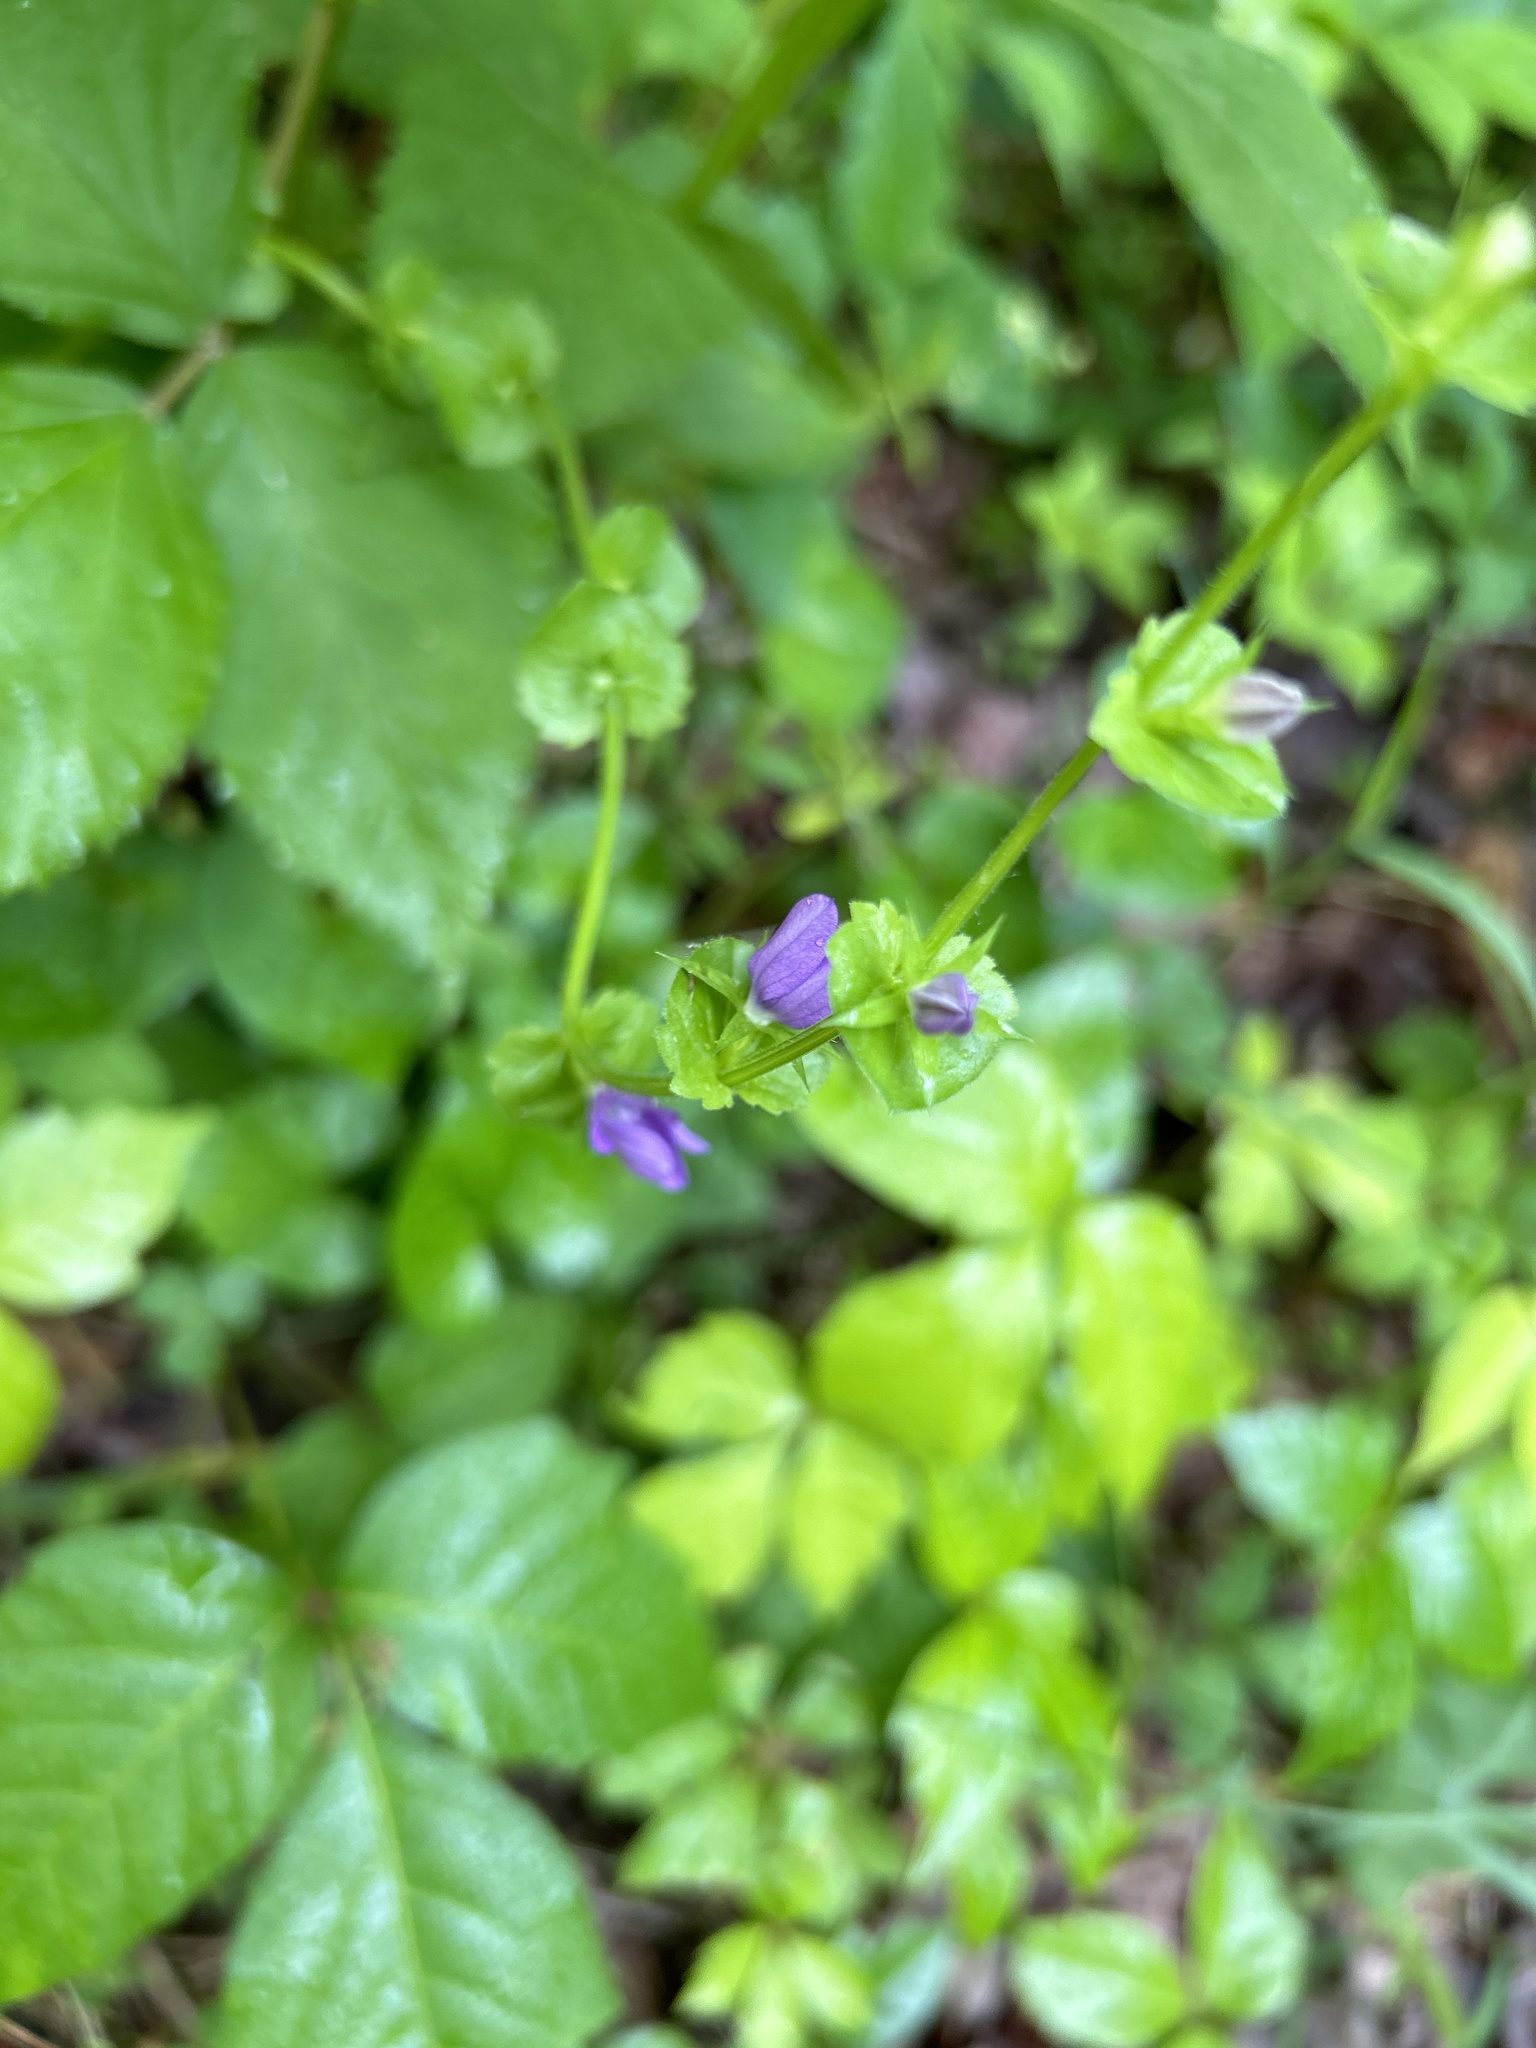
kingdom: Plantae
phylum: Tracheophyta
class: Magnoliopsida
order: Asterales
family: Campanulaceae
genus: Triodanis
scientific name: Triodanis perfoliata
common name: Clasping venus' looking-glass
